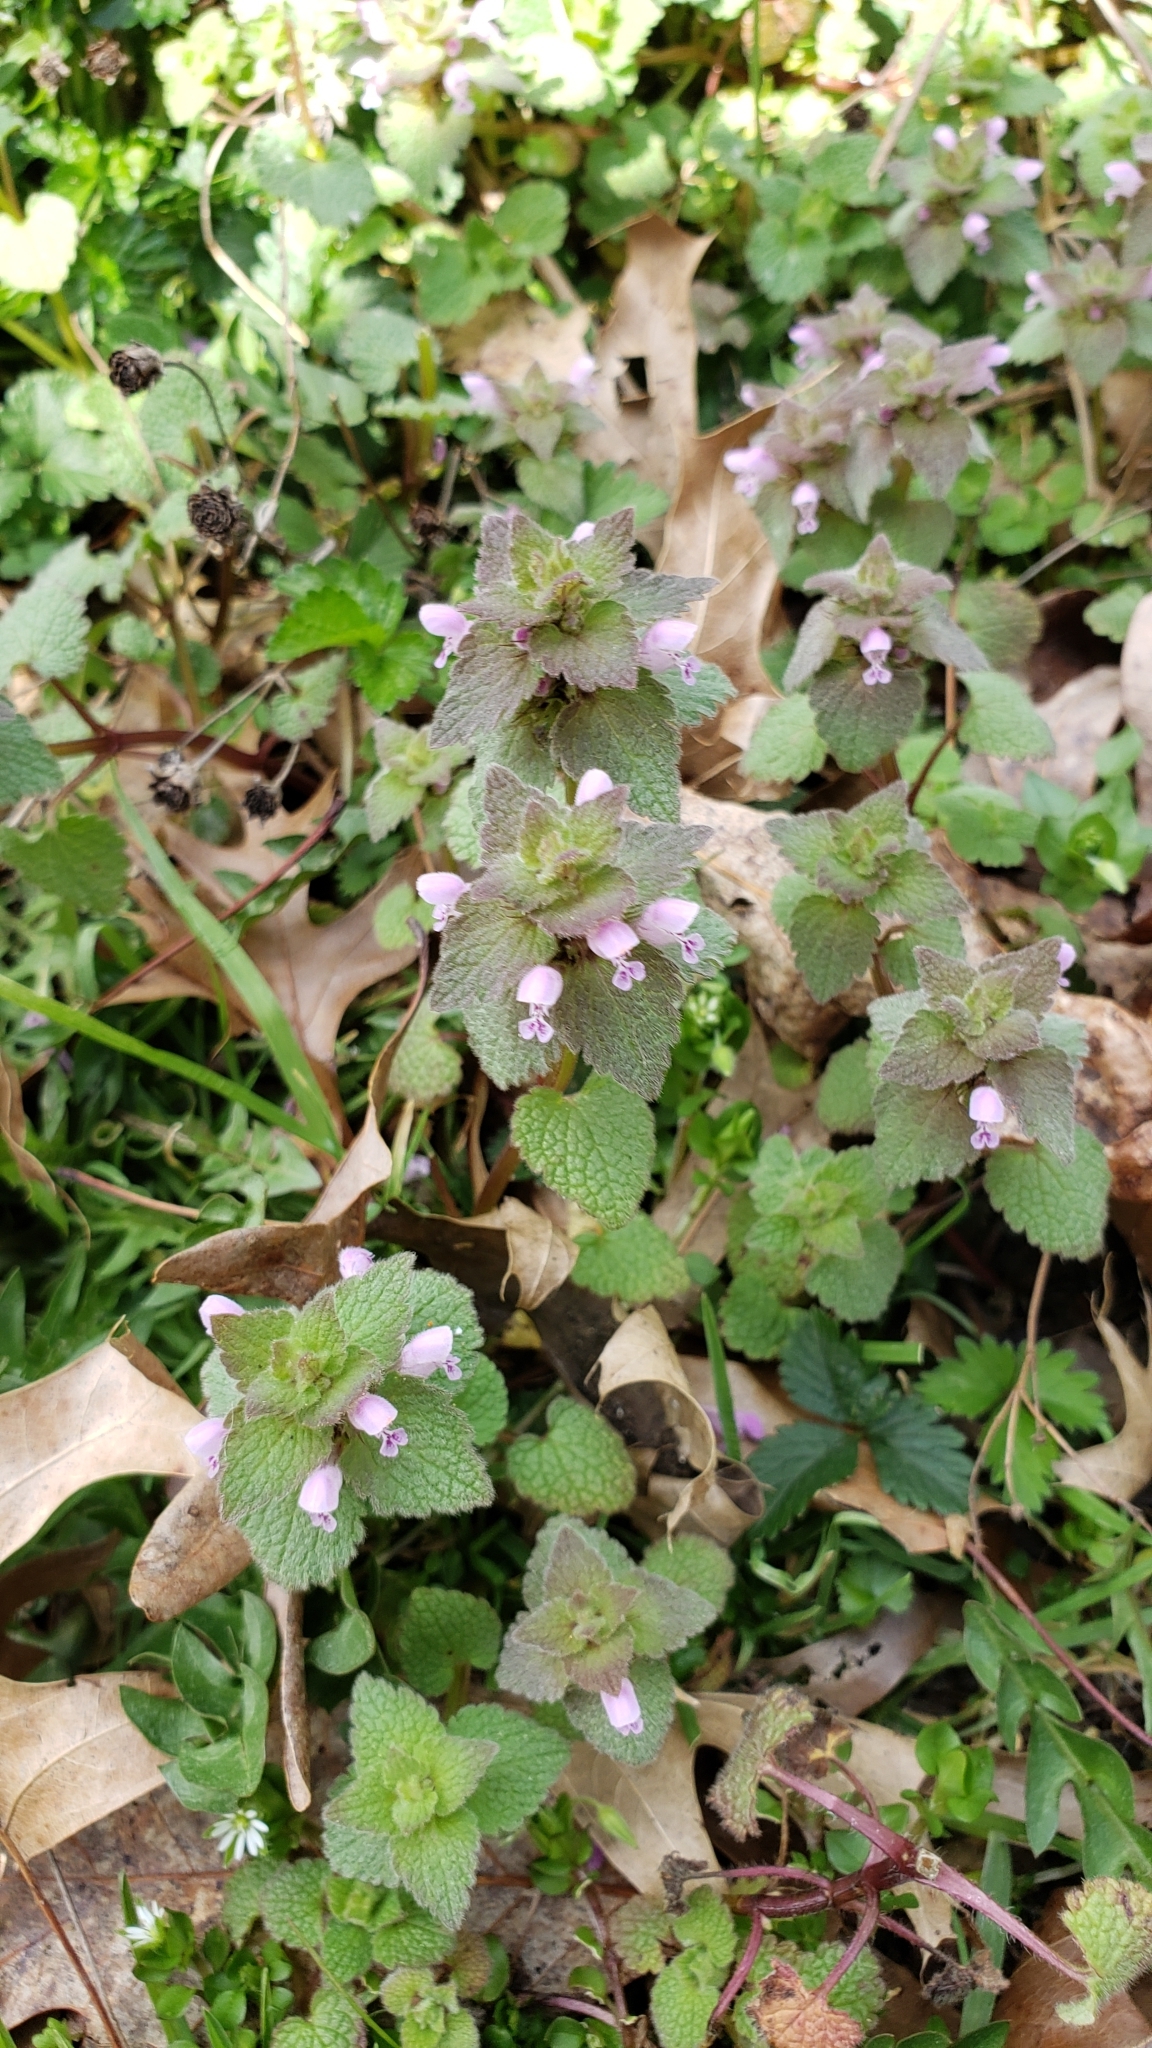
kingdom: Plantae
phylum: Tracheophyta
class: Magnoliopsida
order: Lamiales
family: Lamiaceae
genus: Lamium
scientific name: Lamium purpureum
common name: Red dead-nettle
